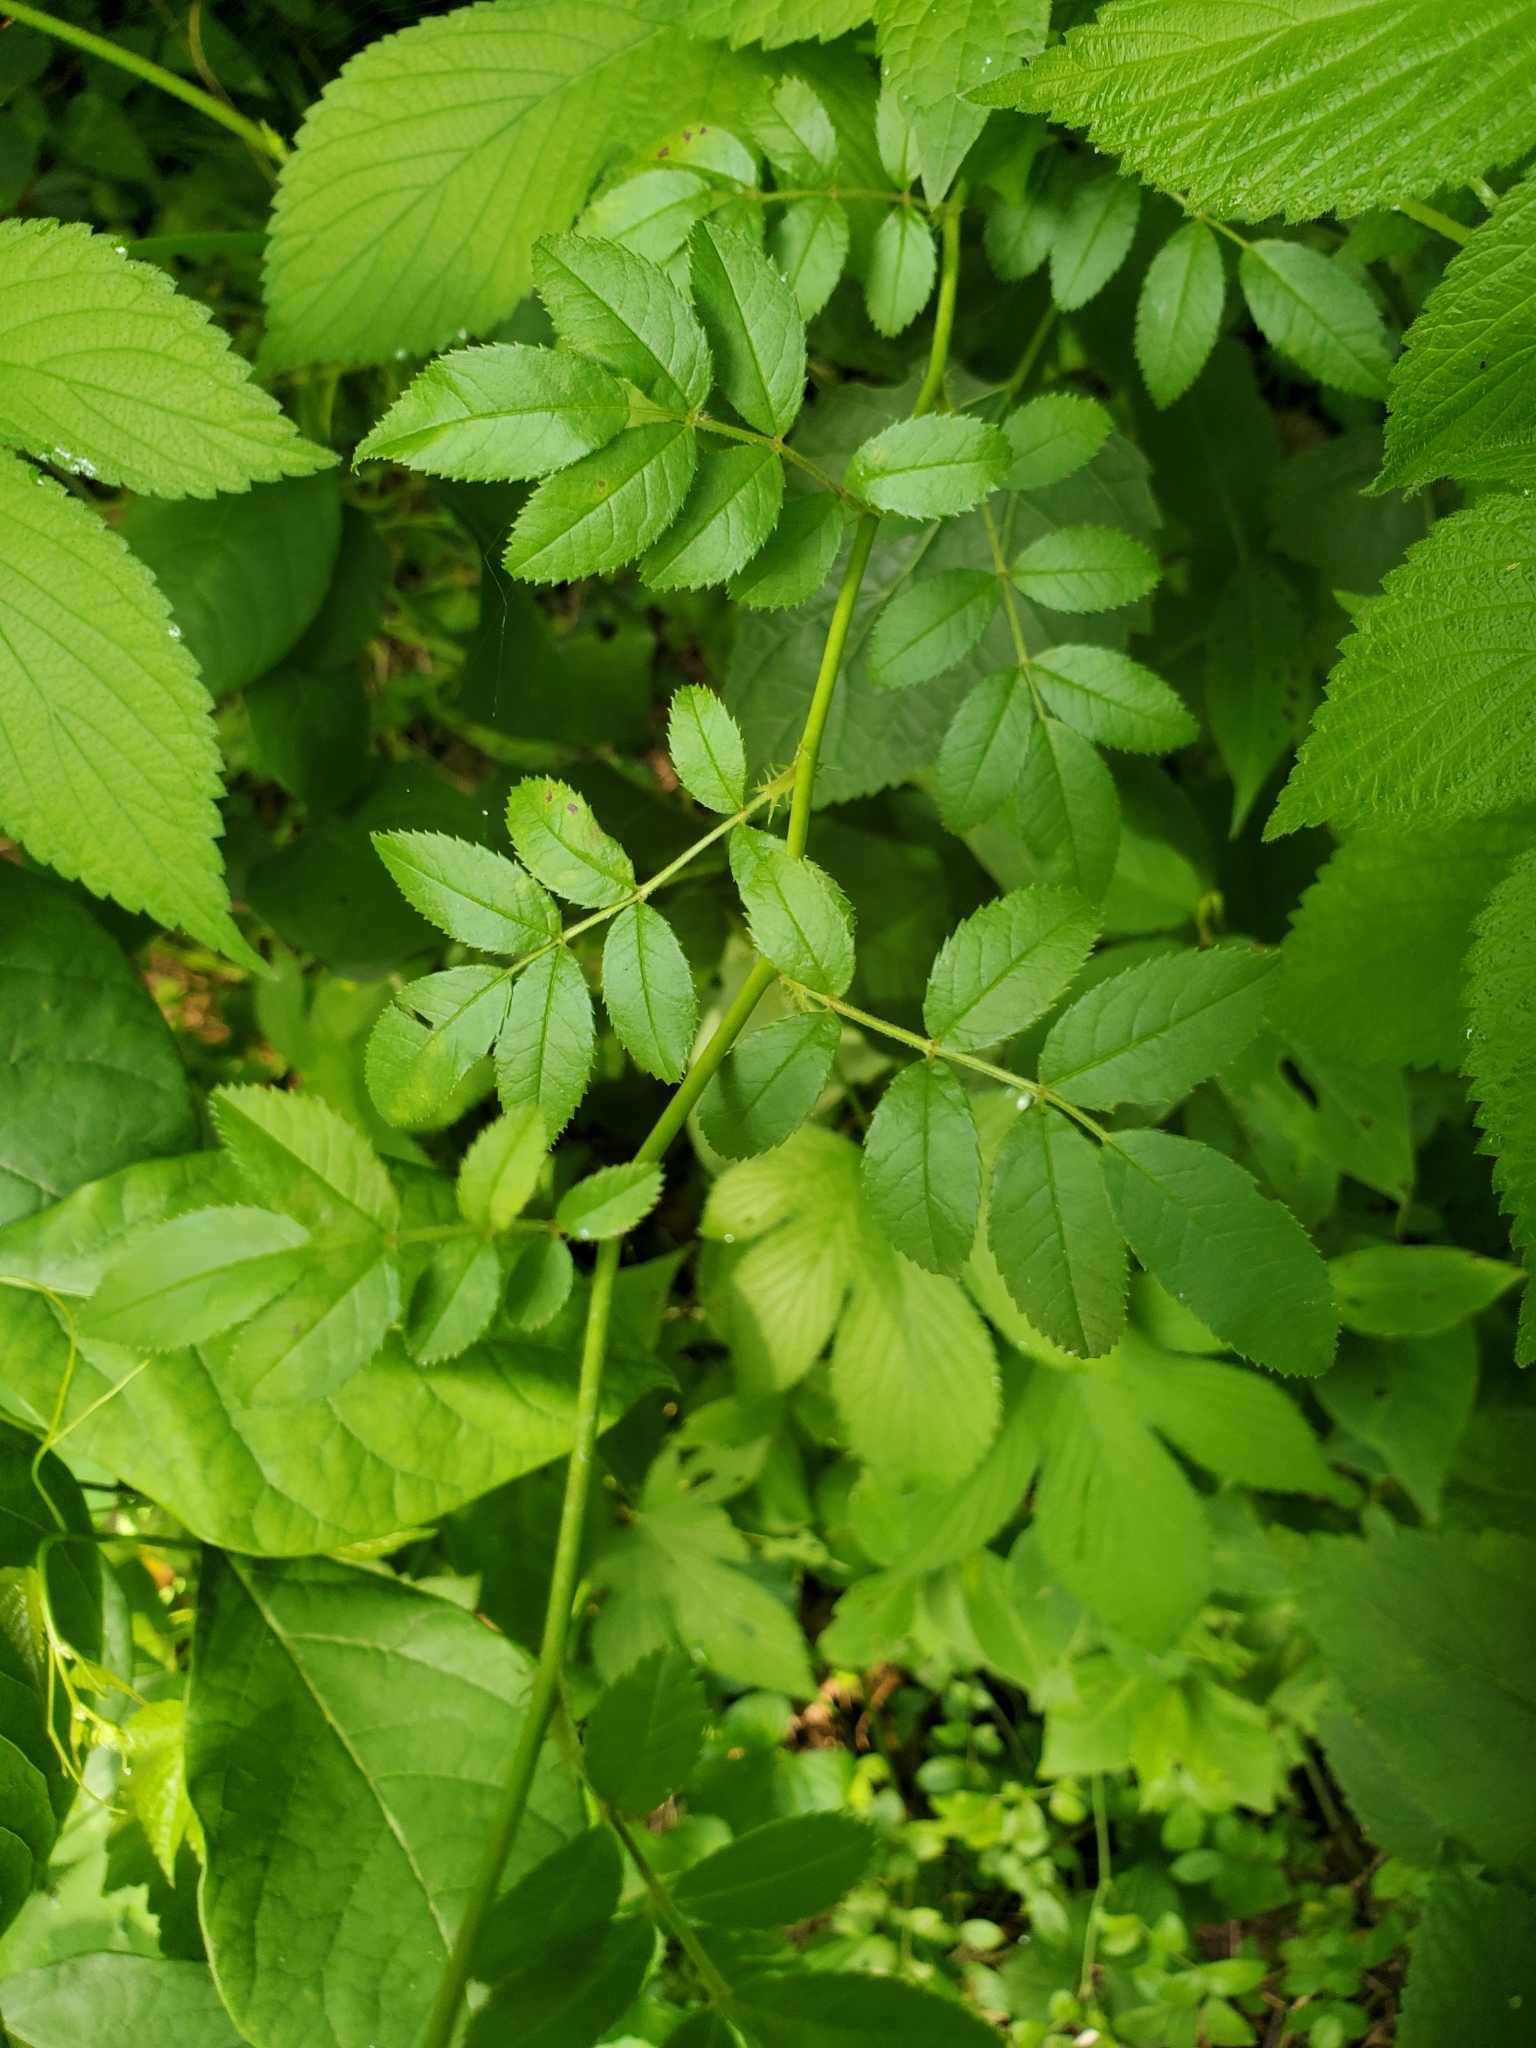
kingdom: Plantae
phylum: Tracheophyta
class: Magnoliopsida
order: Rosales
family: Rosaceae
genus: Rosa
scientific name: Rosa multiflora
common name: Multiflora rose
